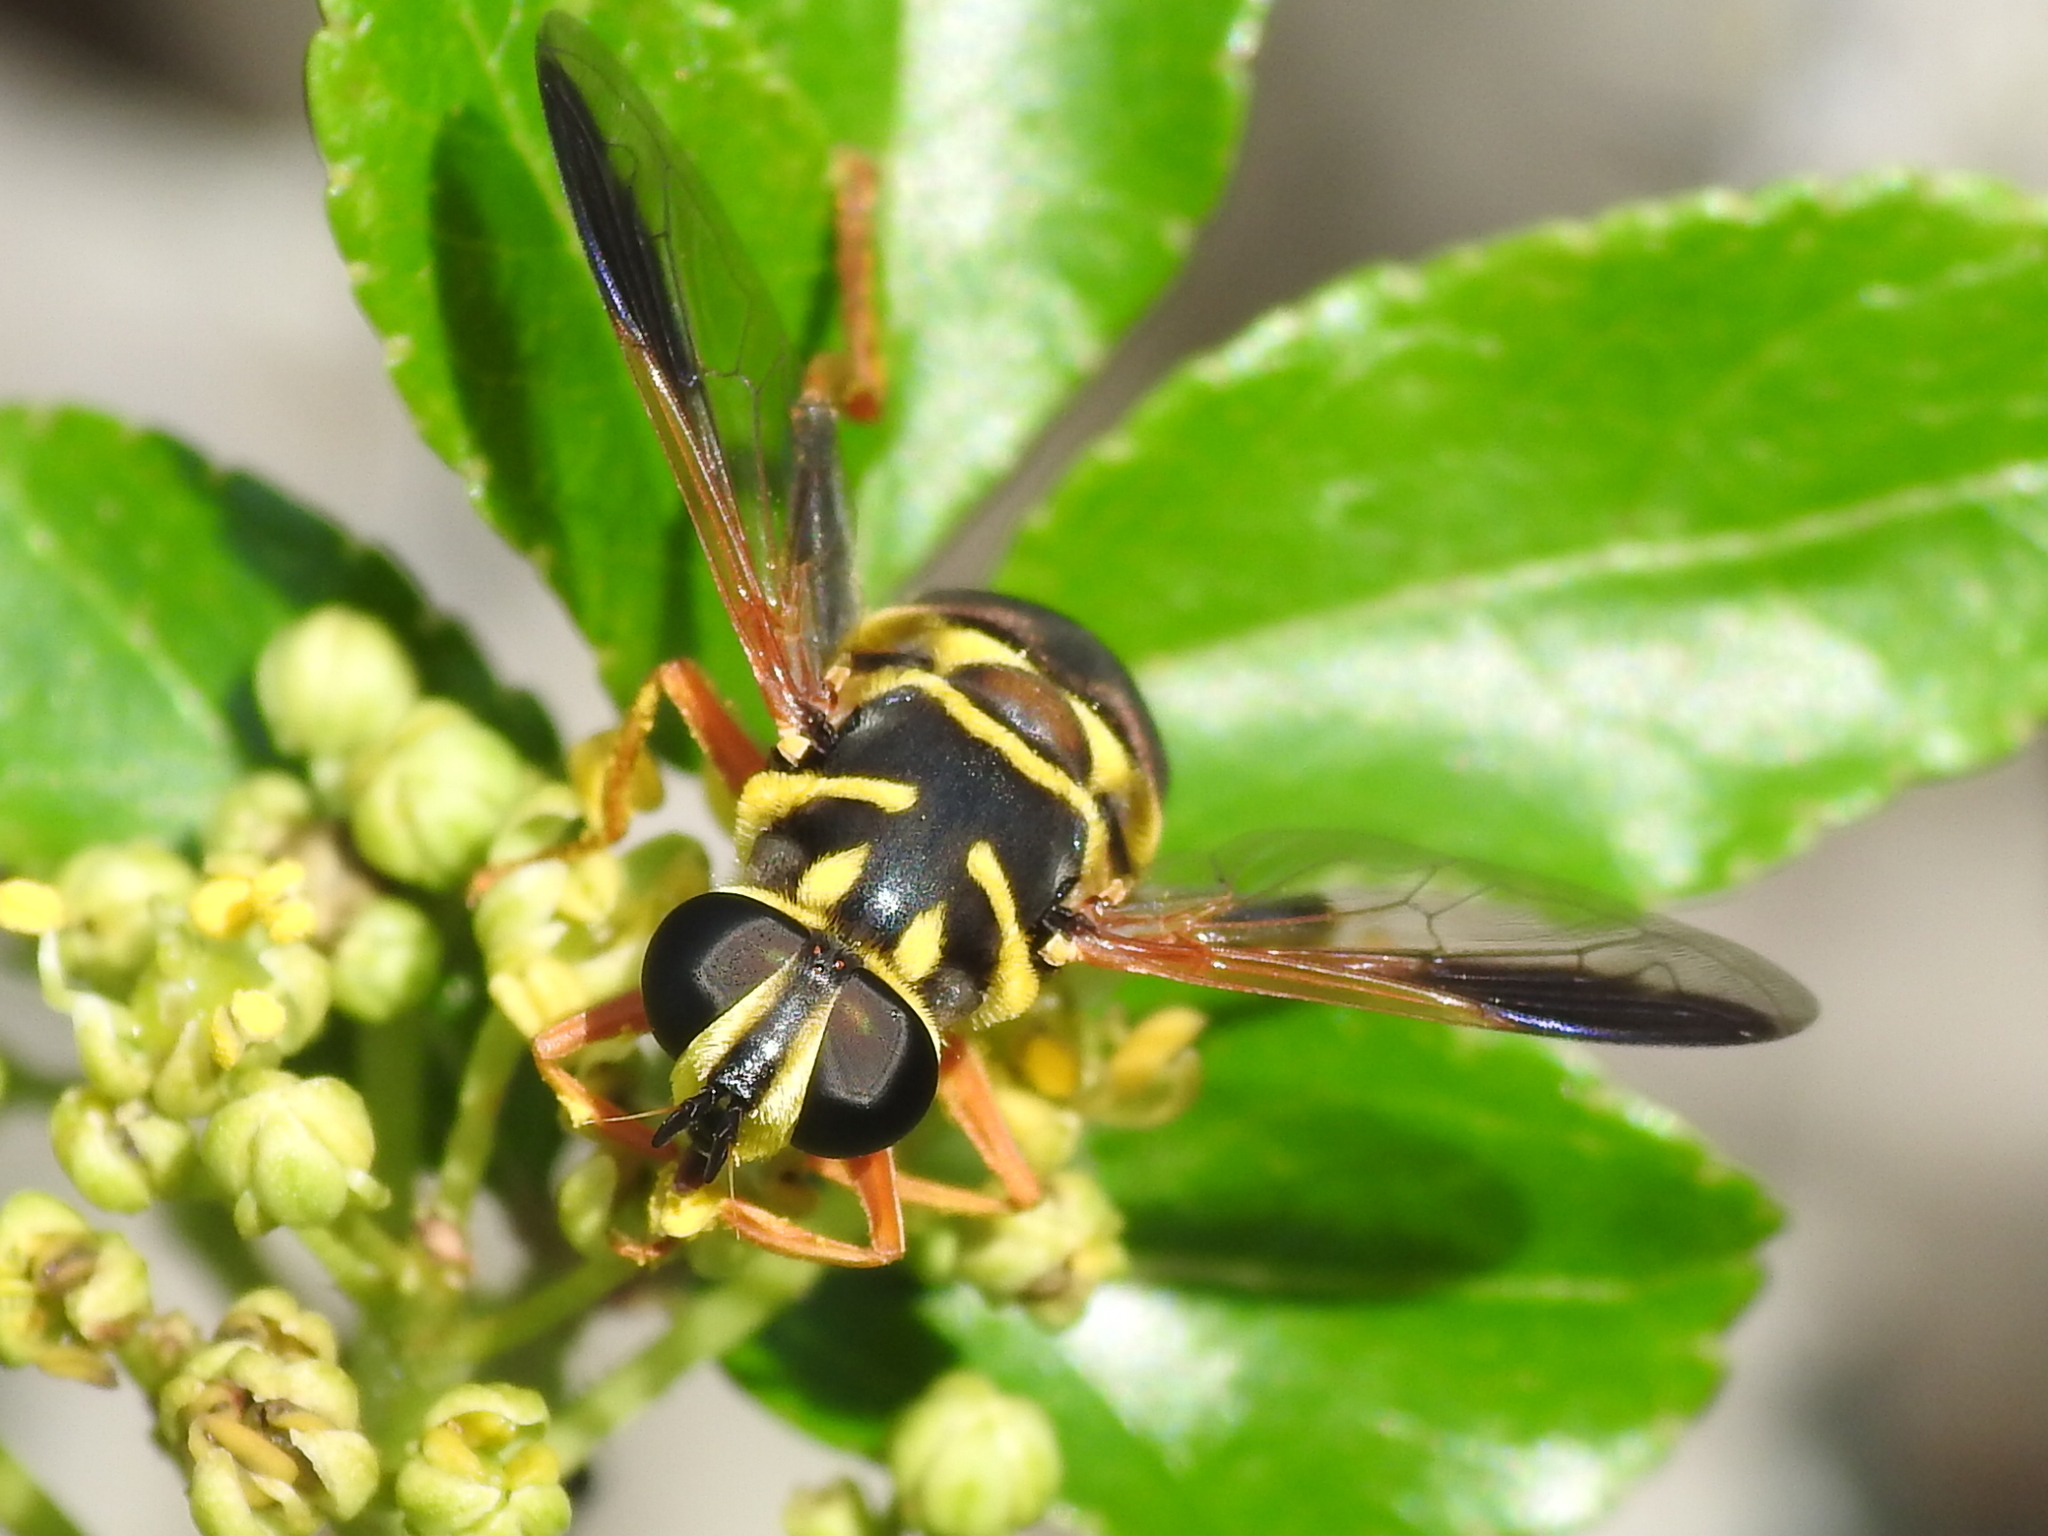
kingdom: Animalia
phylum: Arthropoda
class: Insecta
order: Diptera
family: Syrphidae
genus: Meromacrus
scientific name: Meromacrus acutus
